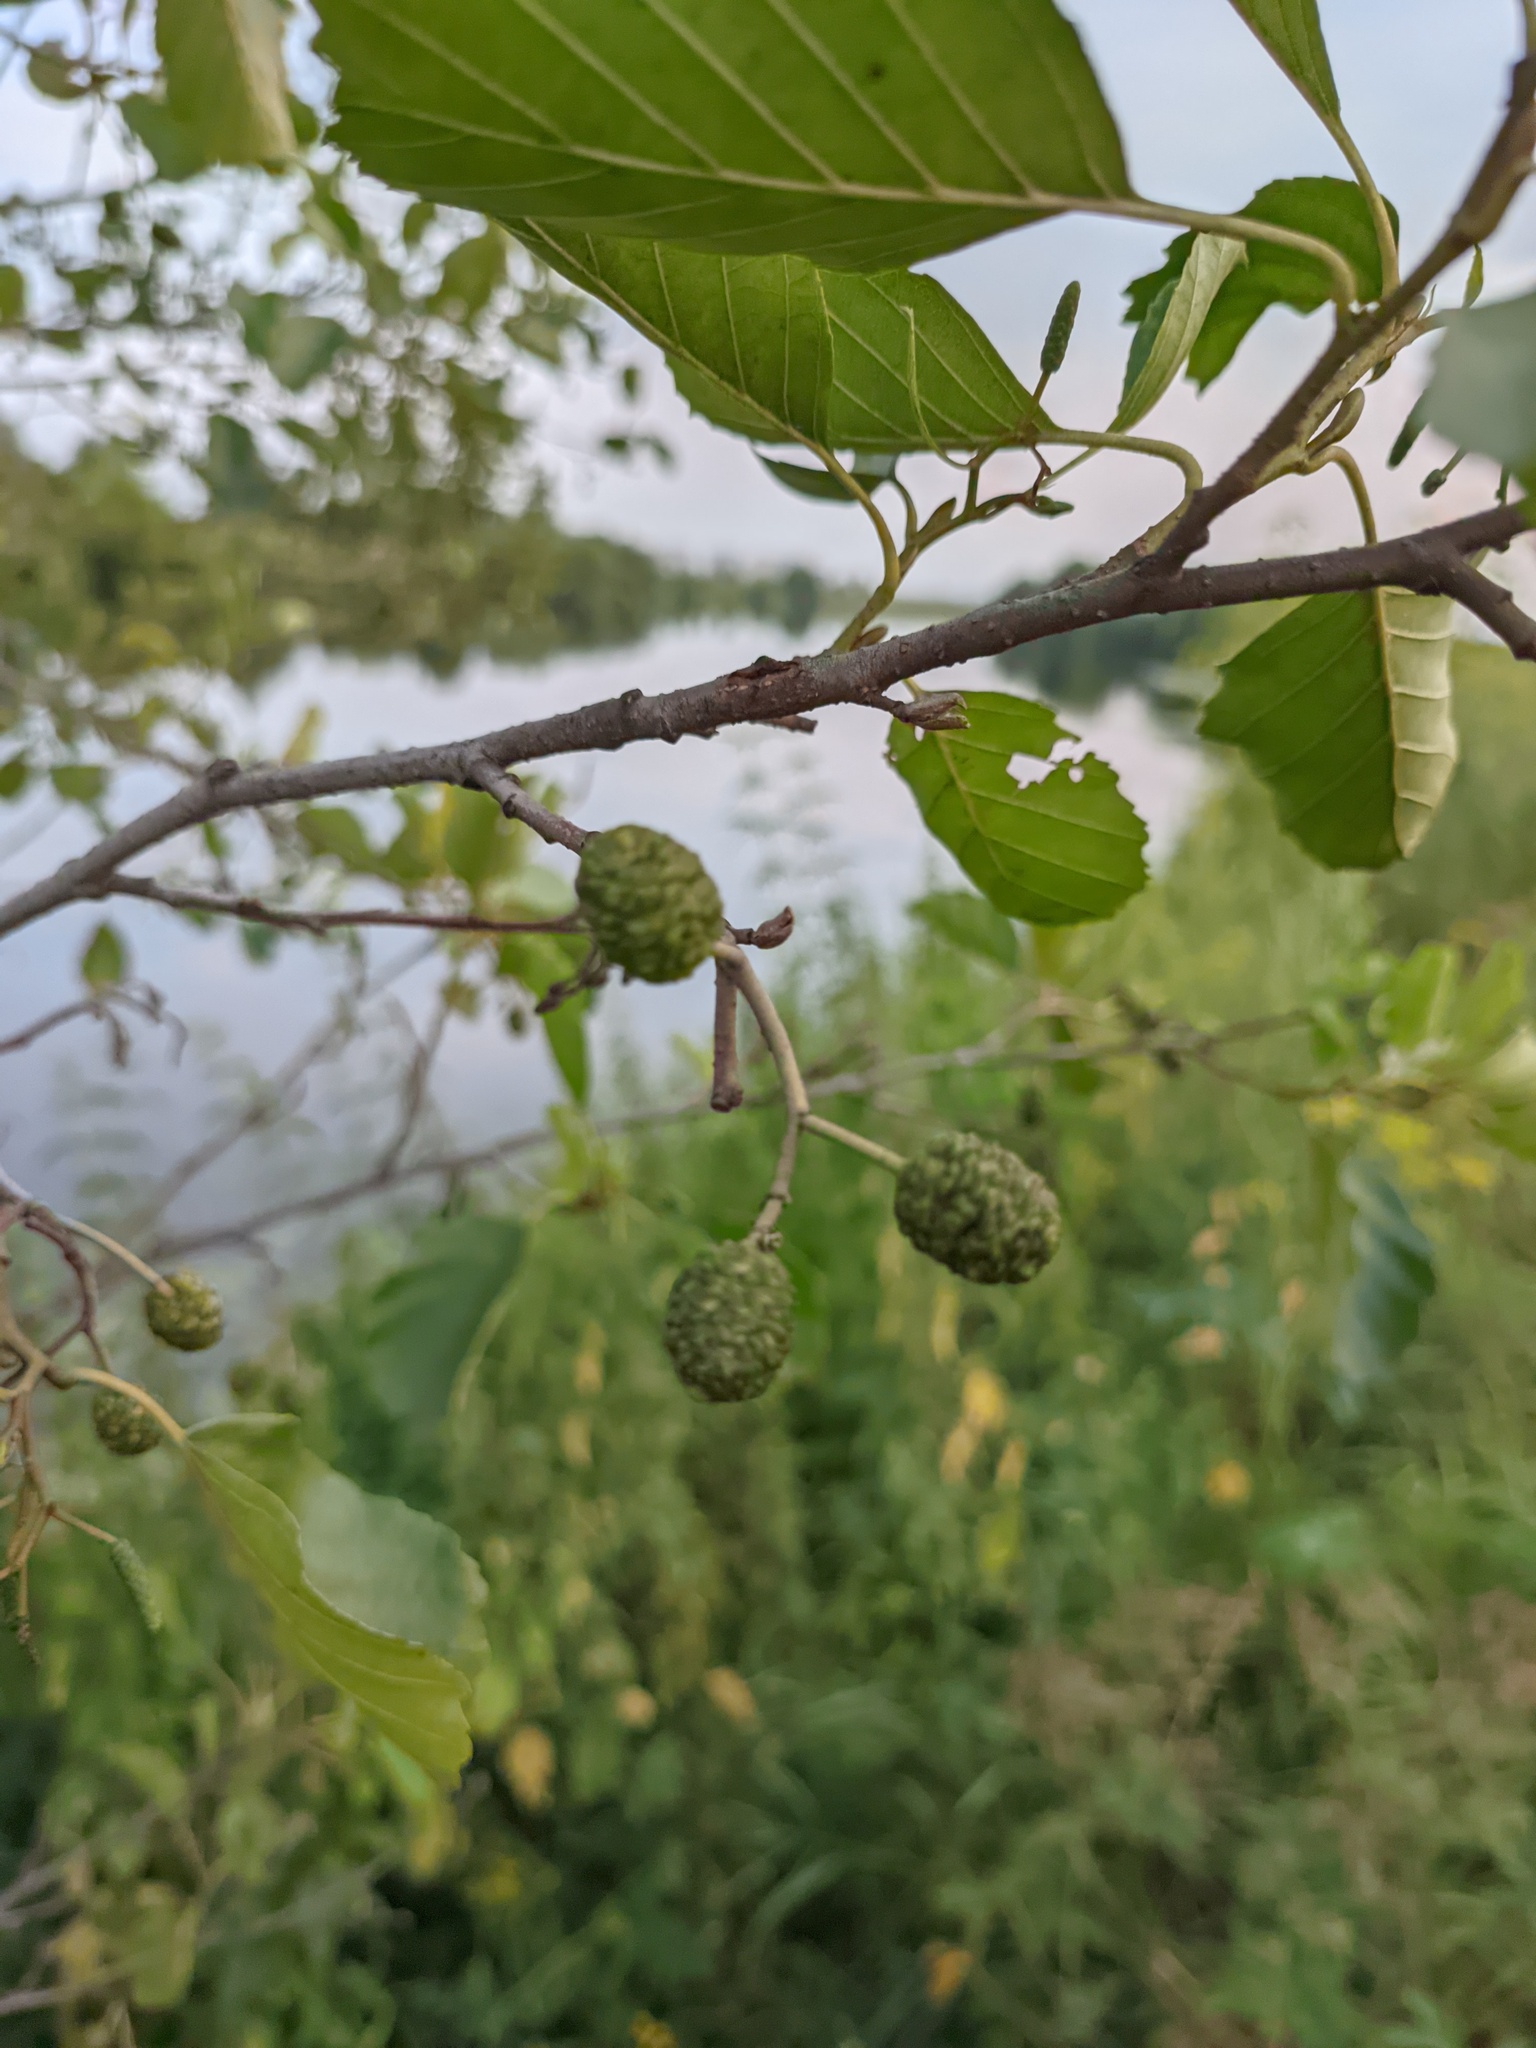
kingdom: Plantae
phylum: Tracheophyta
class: Magnoliopsida
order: Fagales
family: Betulaceae
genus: Alnus
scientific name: Alnus glutinosa
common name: Black alder
